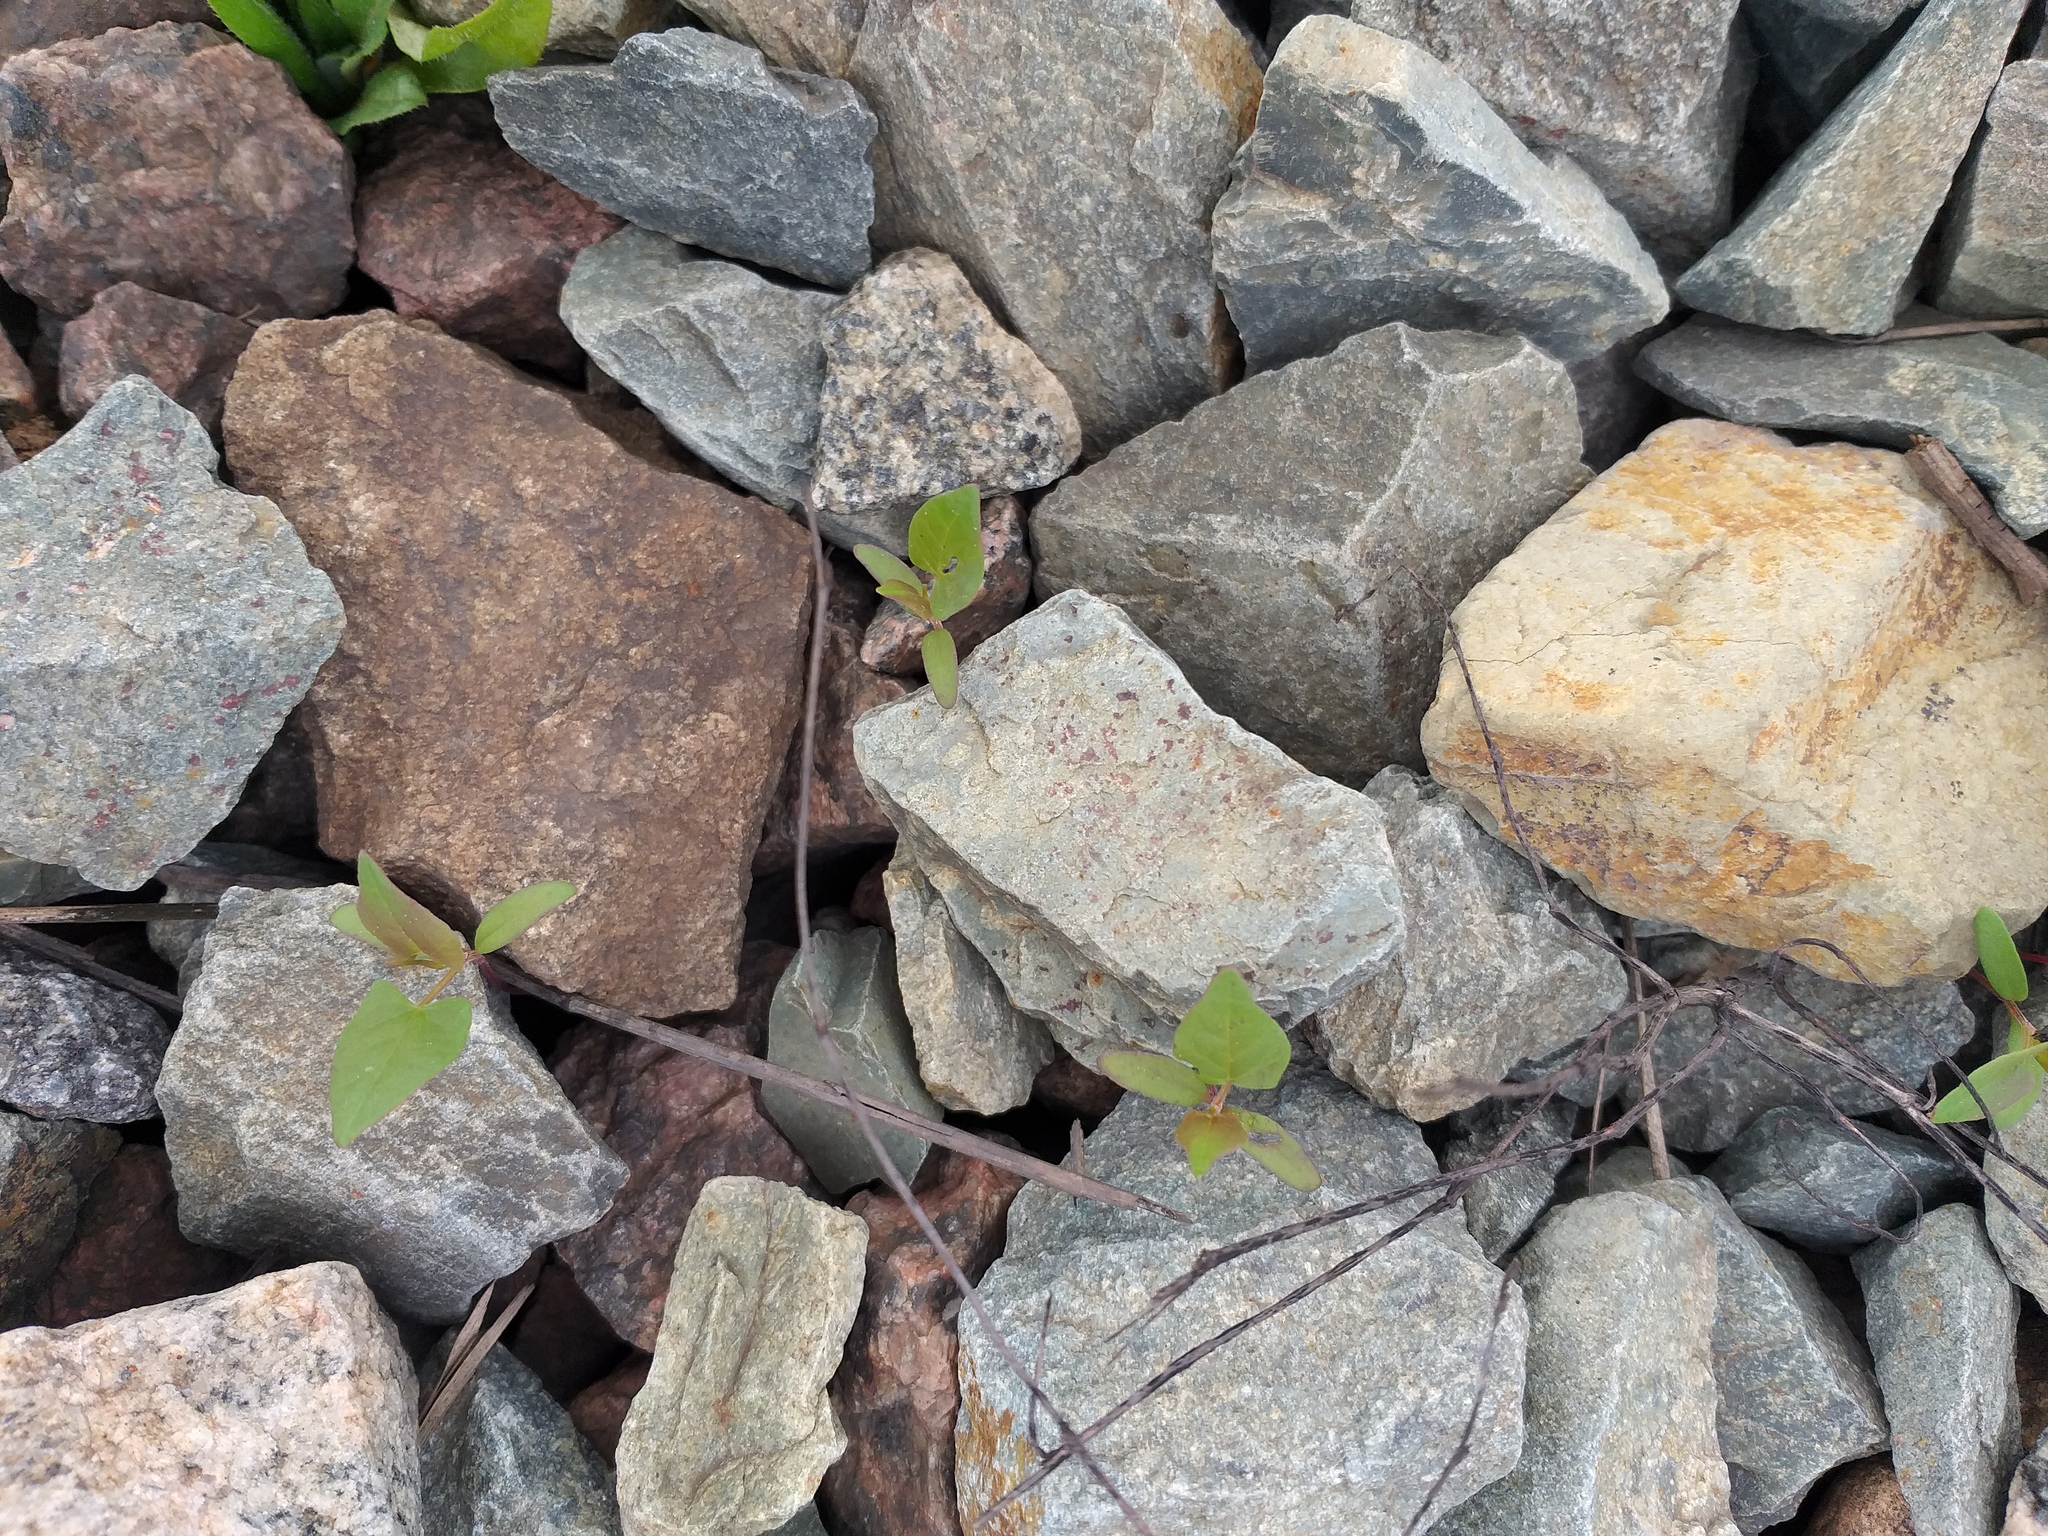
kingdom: Plantae
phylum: Tracheophyta
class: Magnoliopsida
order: Caryophyllales
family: Polygonaceae
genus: Fallopia
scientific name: Fallopia convolvulus
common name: Black bindweed
